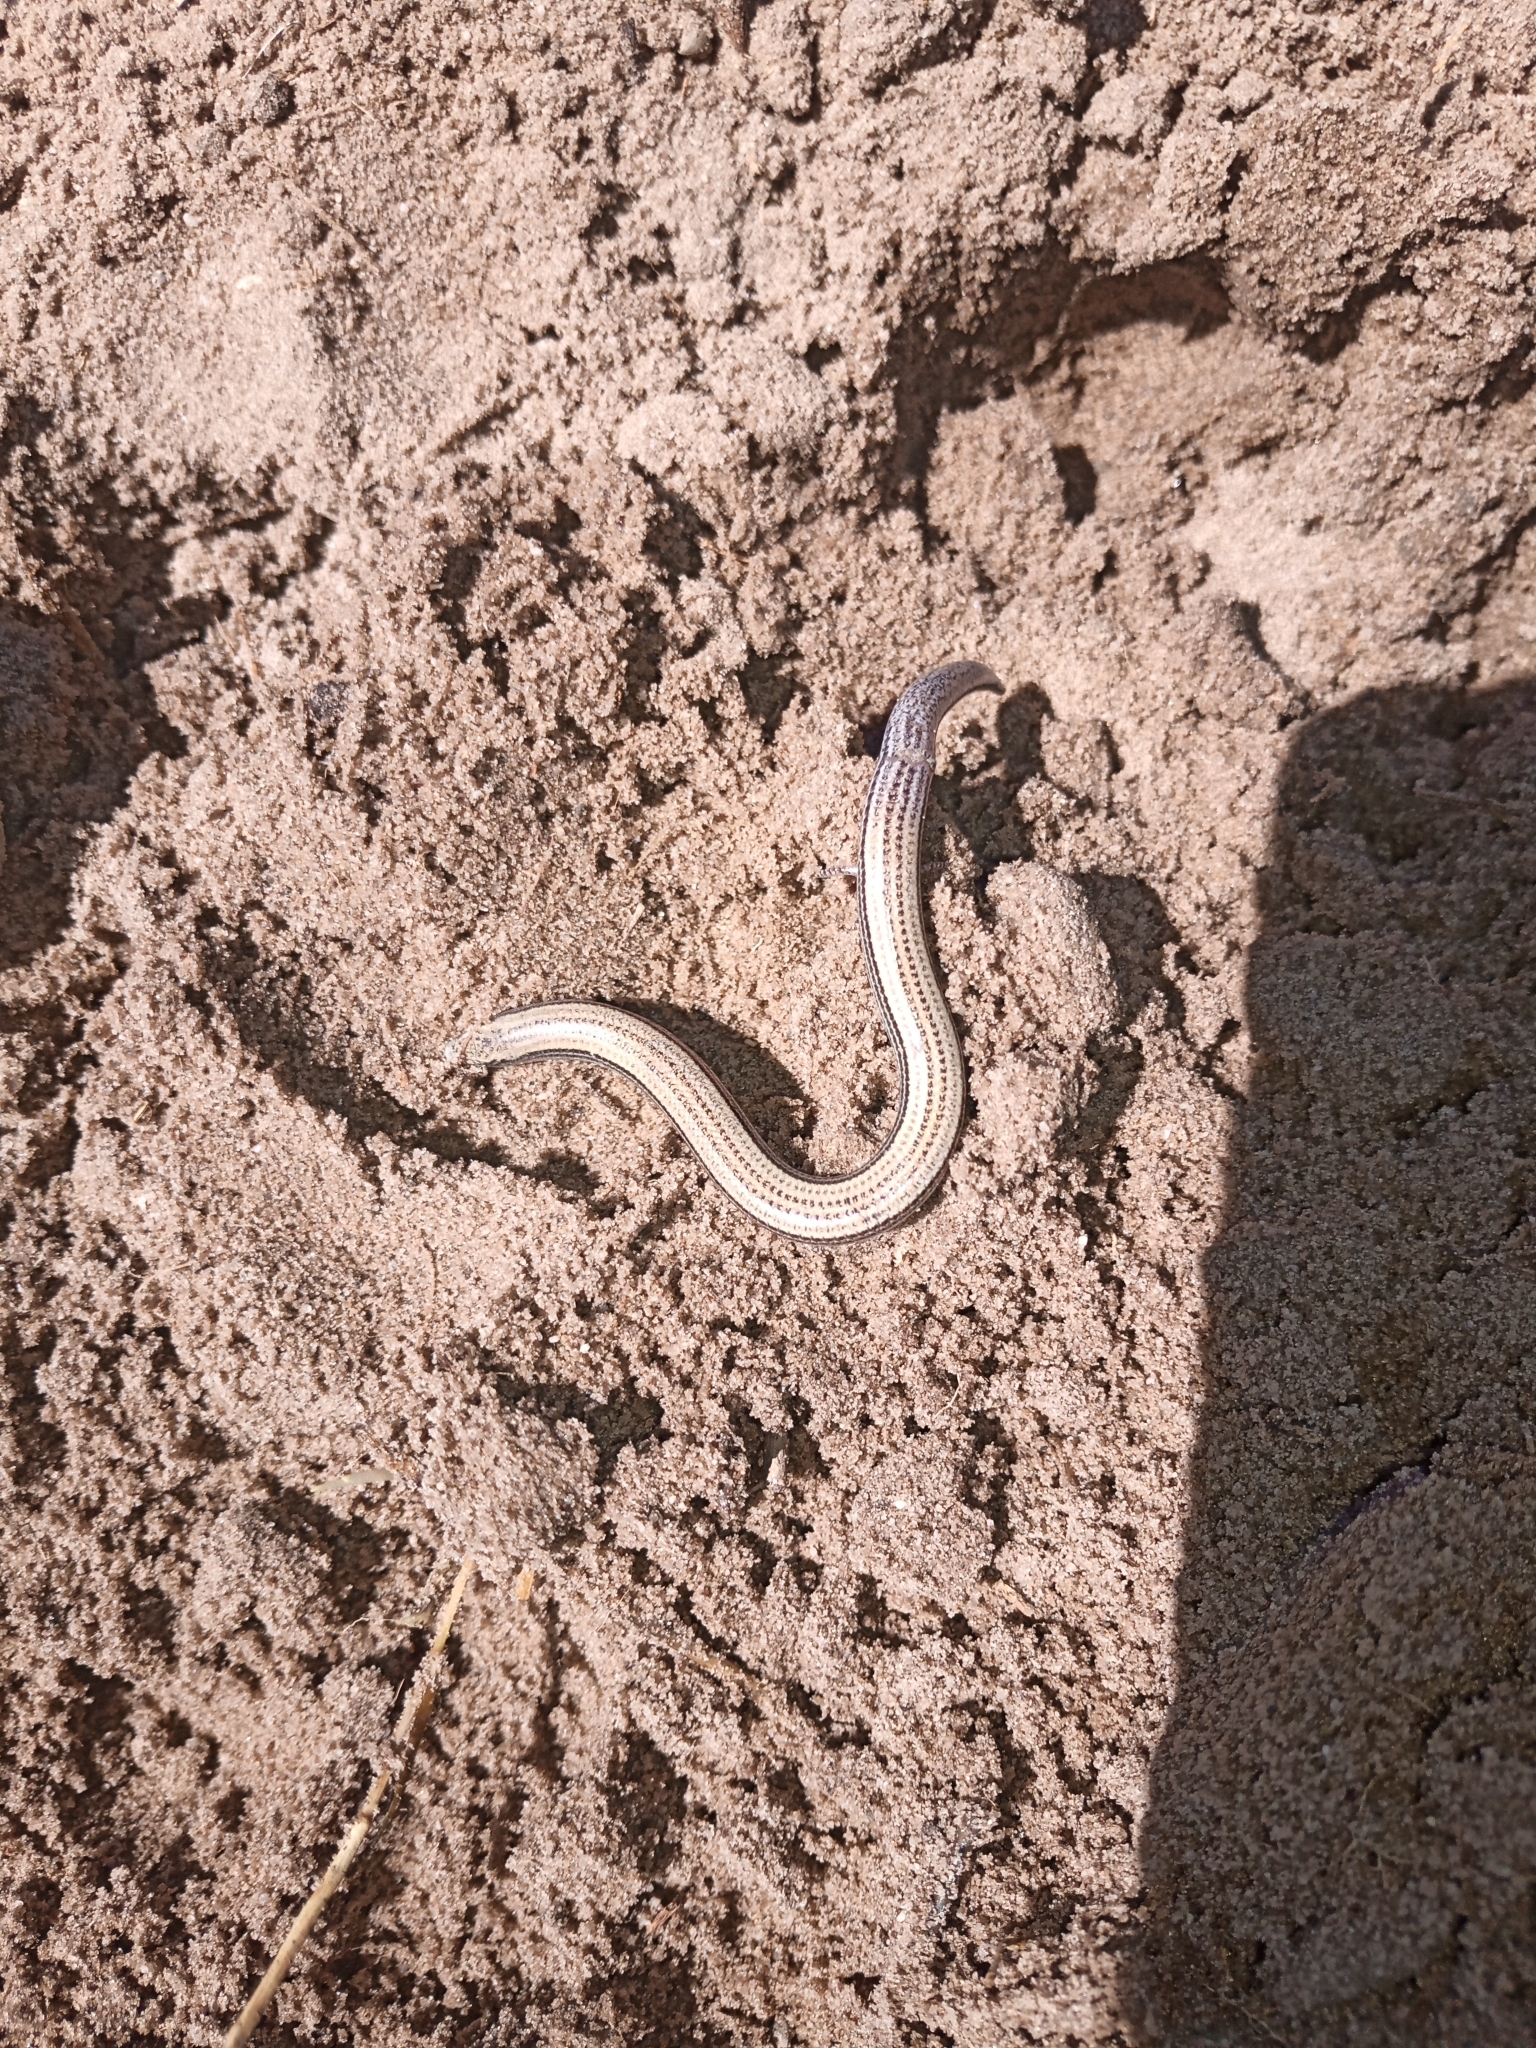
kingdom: Animalia
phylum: Chordata
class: Squamata
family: Scincidae
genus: Scelotes
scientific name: Scelotes gronovii
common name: Gronovi's dwarf burrowing skink
